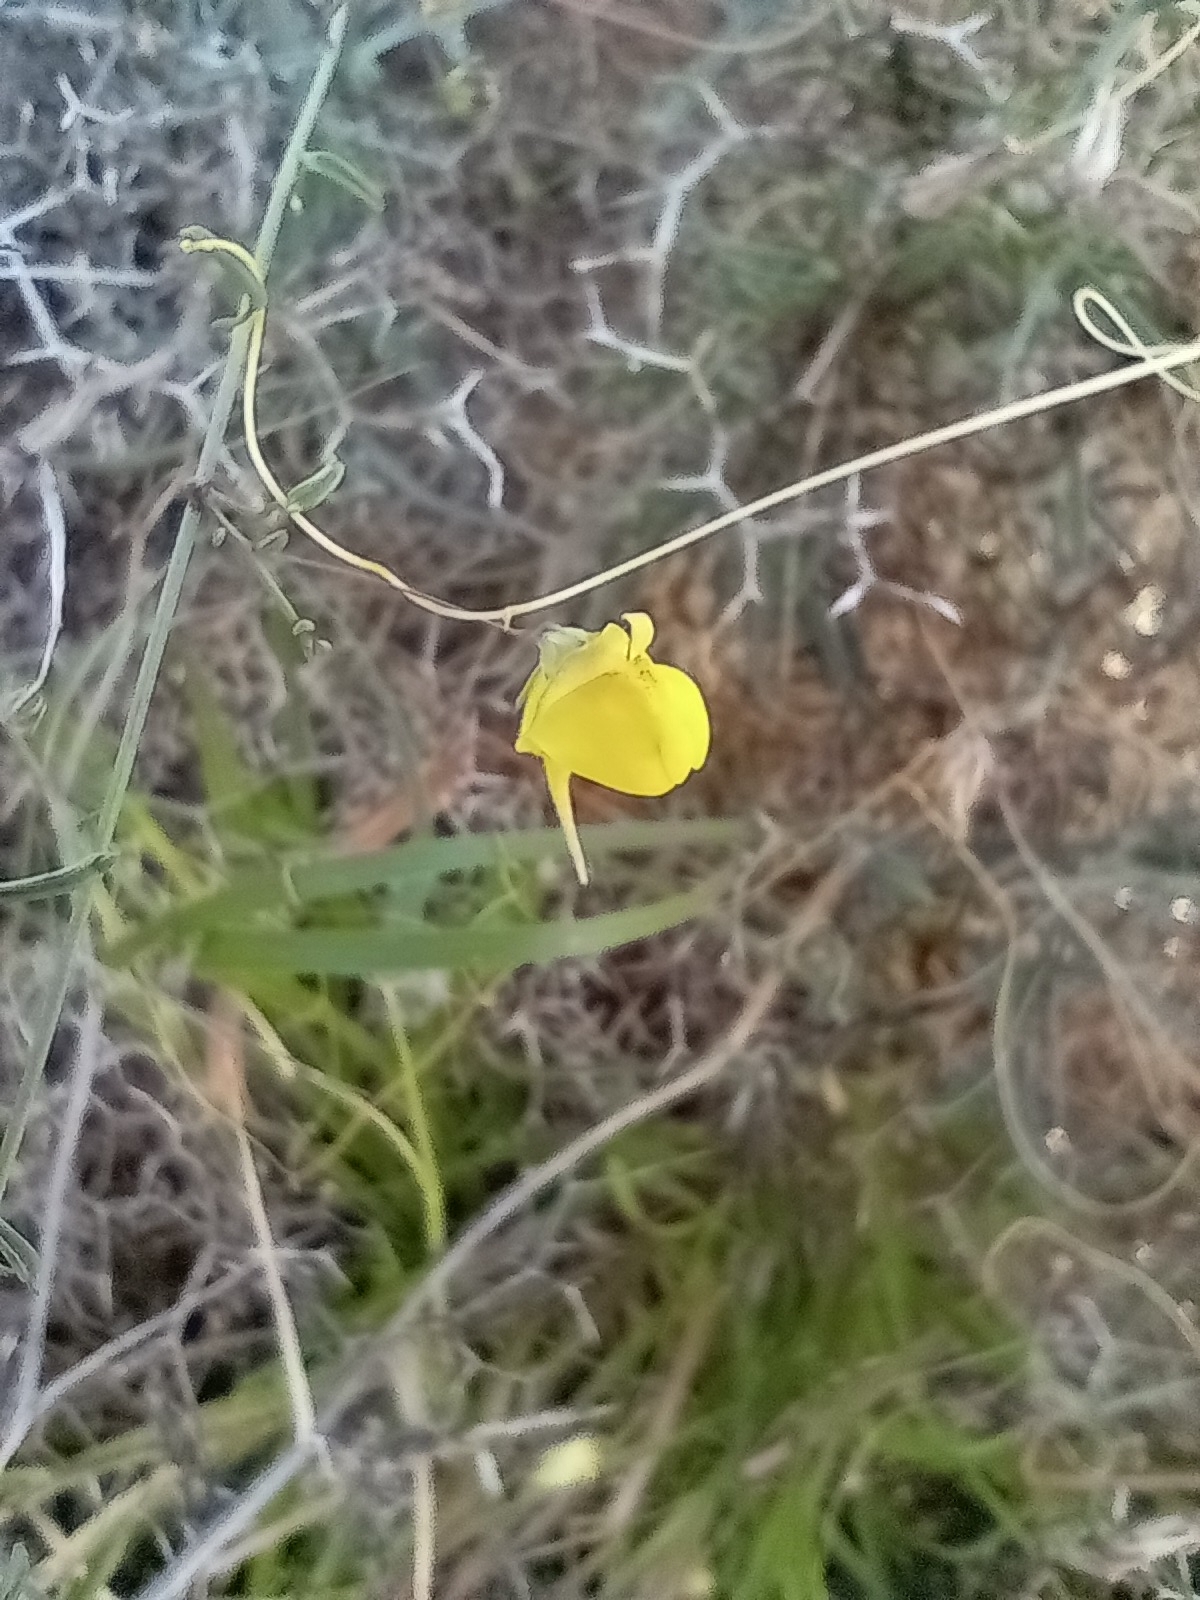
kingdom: Plantae
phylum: Tracheophyta
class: Magnoliopsida
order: Lamiales
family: Plantaginaceae
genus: Nanorrhinum
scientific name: Nanorrhinum heterophyllum
